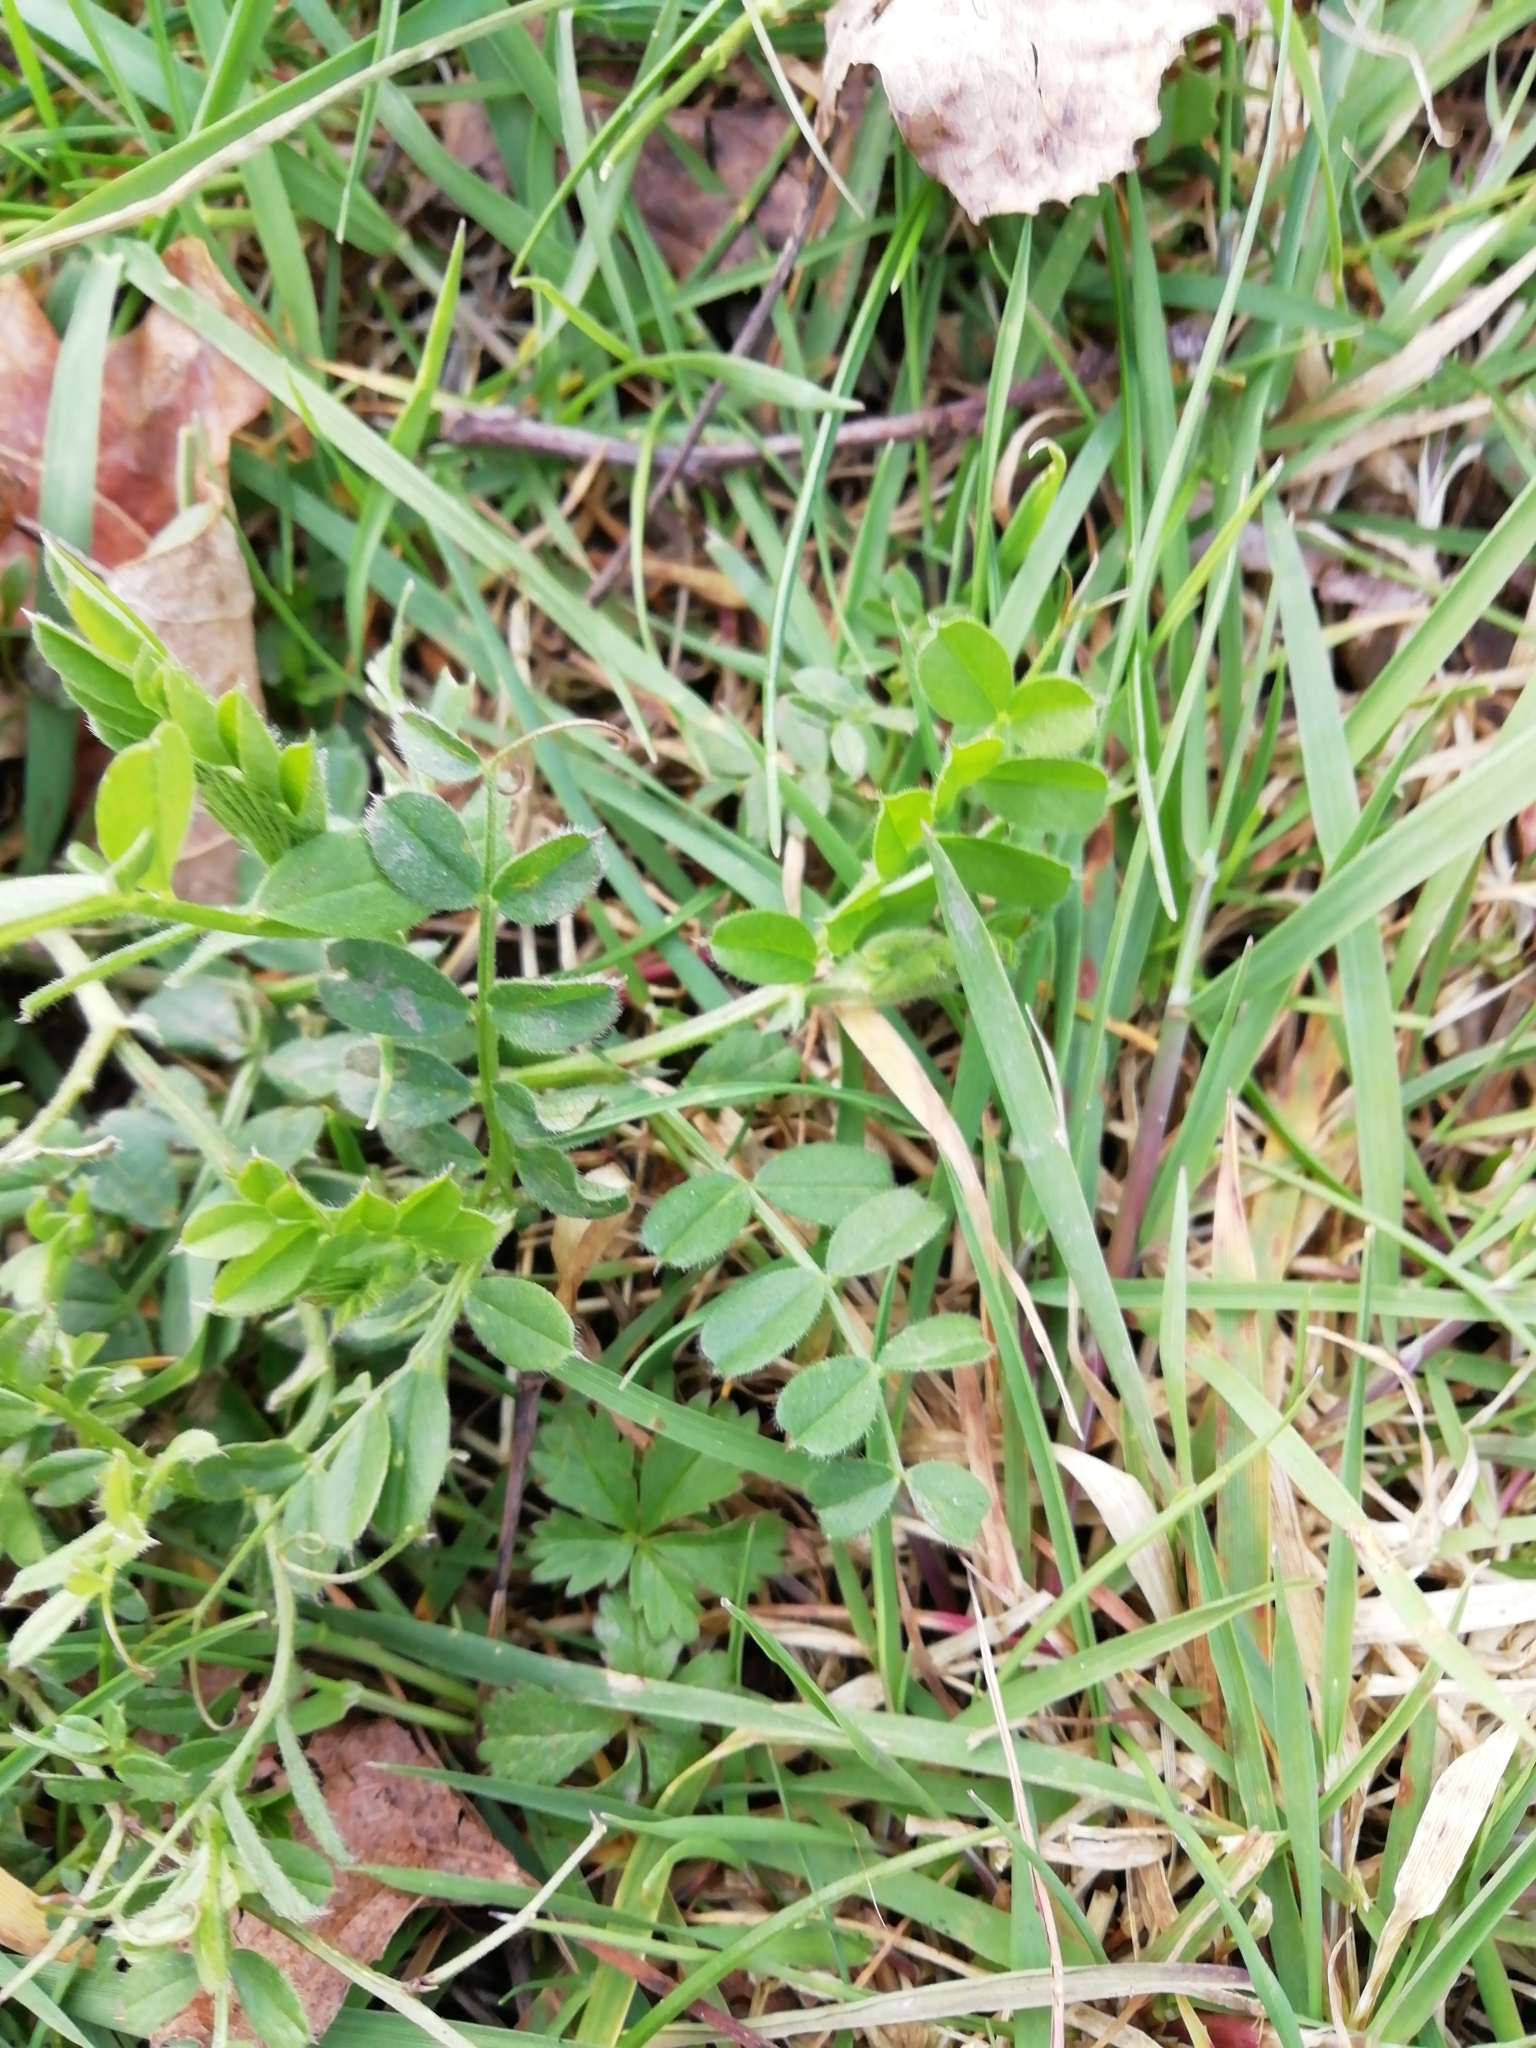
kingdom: Plantae
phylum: Tracheophyta
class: Magnoliopsida
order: Fabales
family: Fabaceae
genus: Vicia
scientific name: Vicia sativa
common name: Garden vetch
